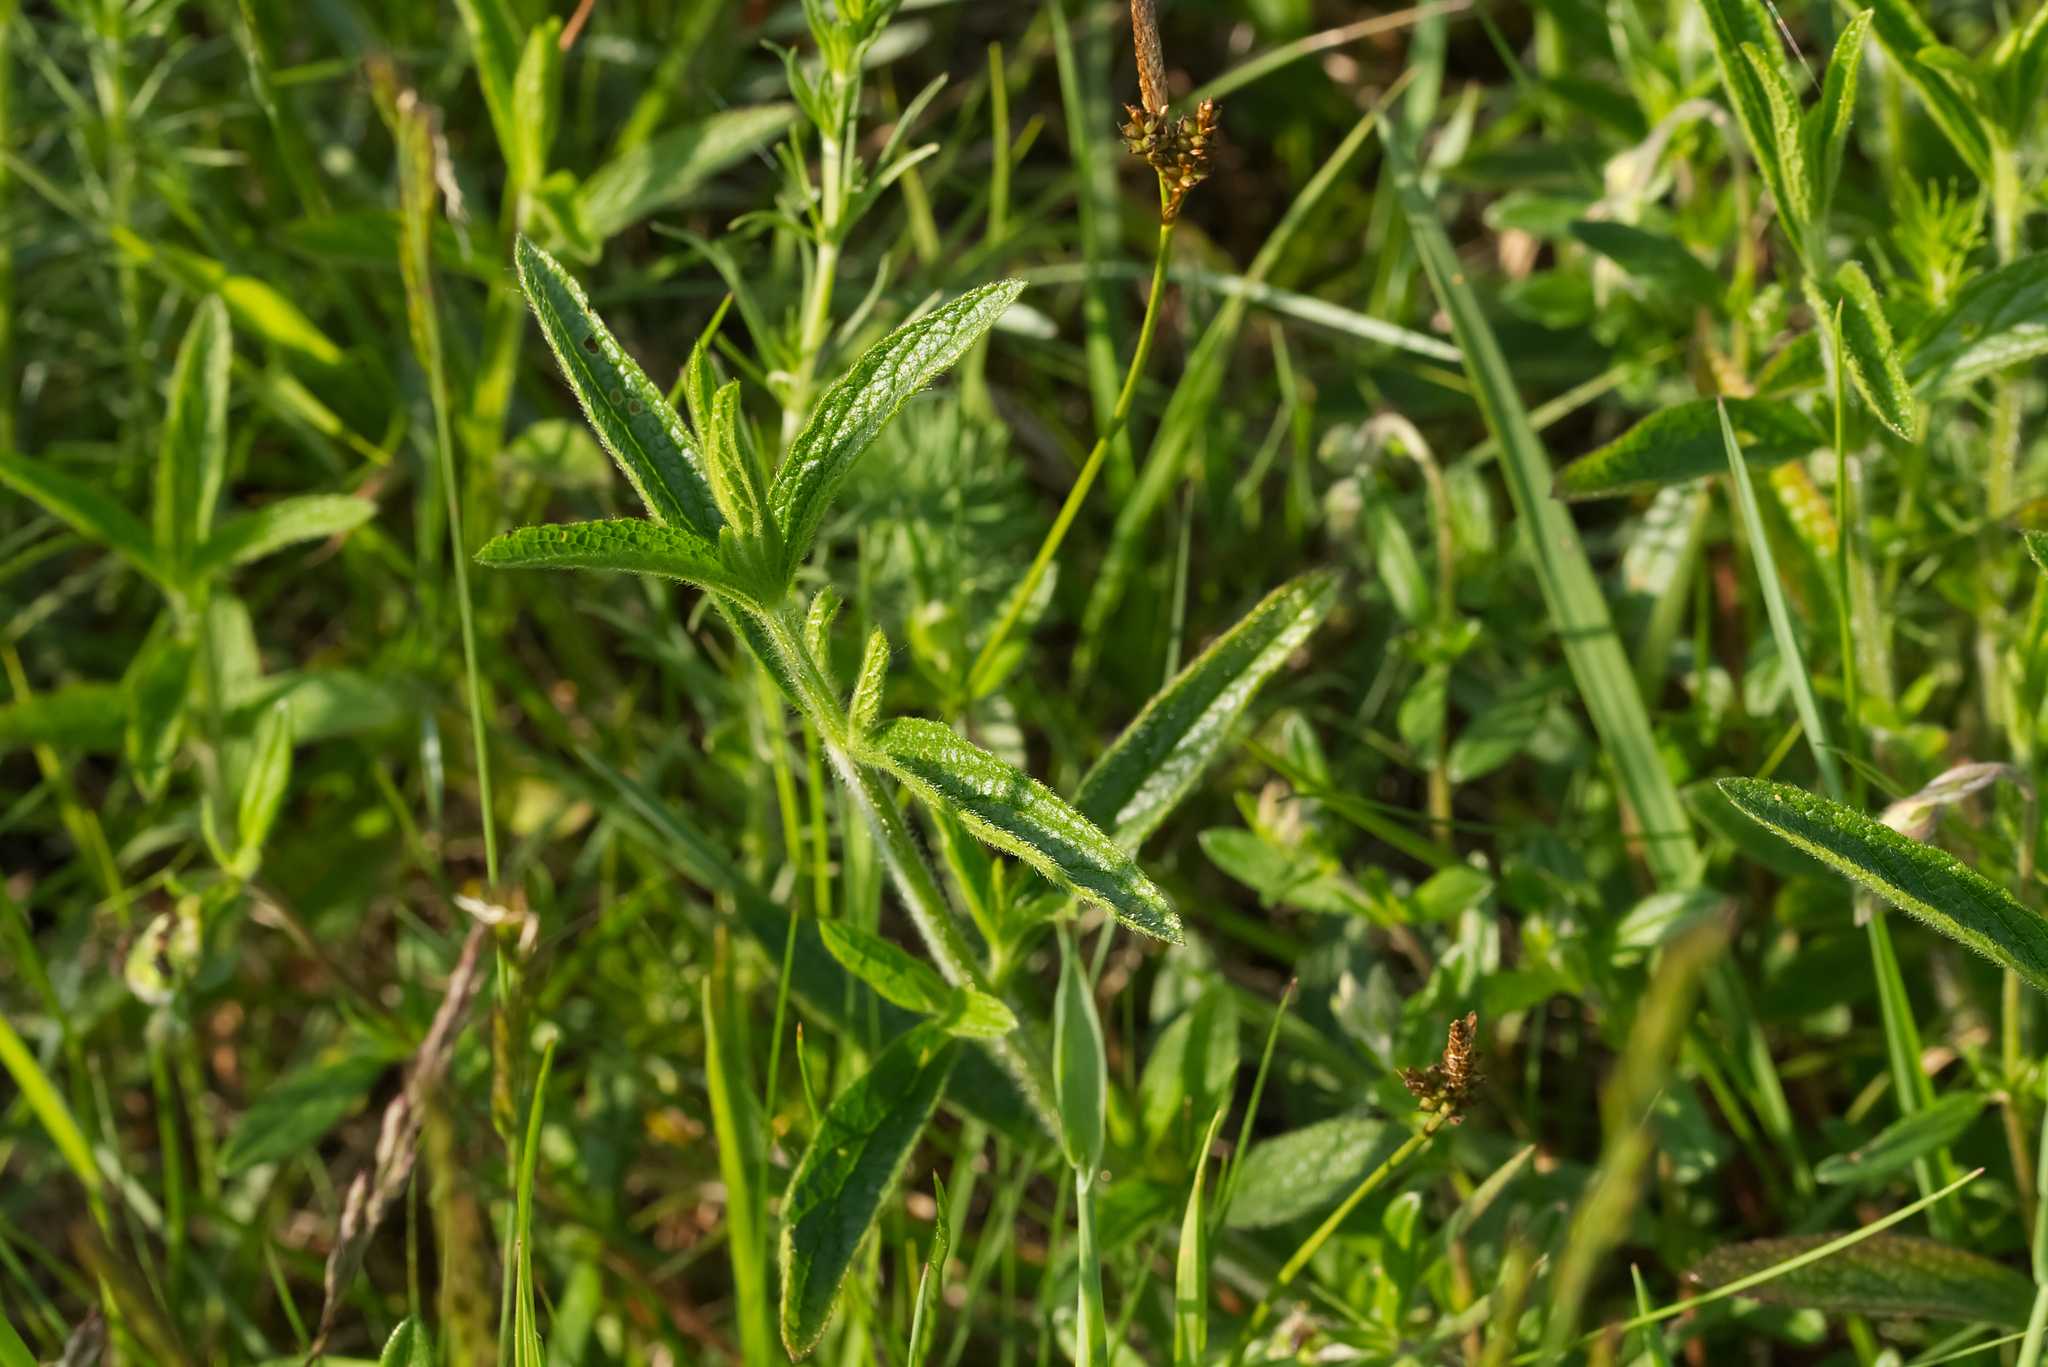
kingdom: Plantae
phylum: Tracheophyta
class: Magnoliopsida
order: Lamiales
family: Lamiaceae
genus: Stachys
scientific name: Stachys recta
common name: Perennial yellow-woundwort
